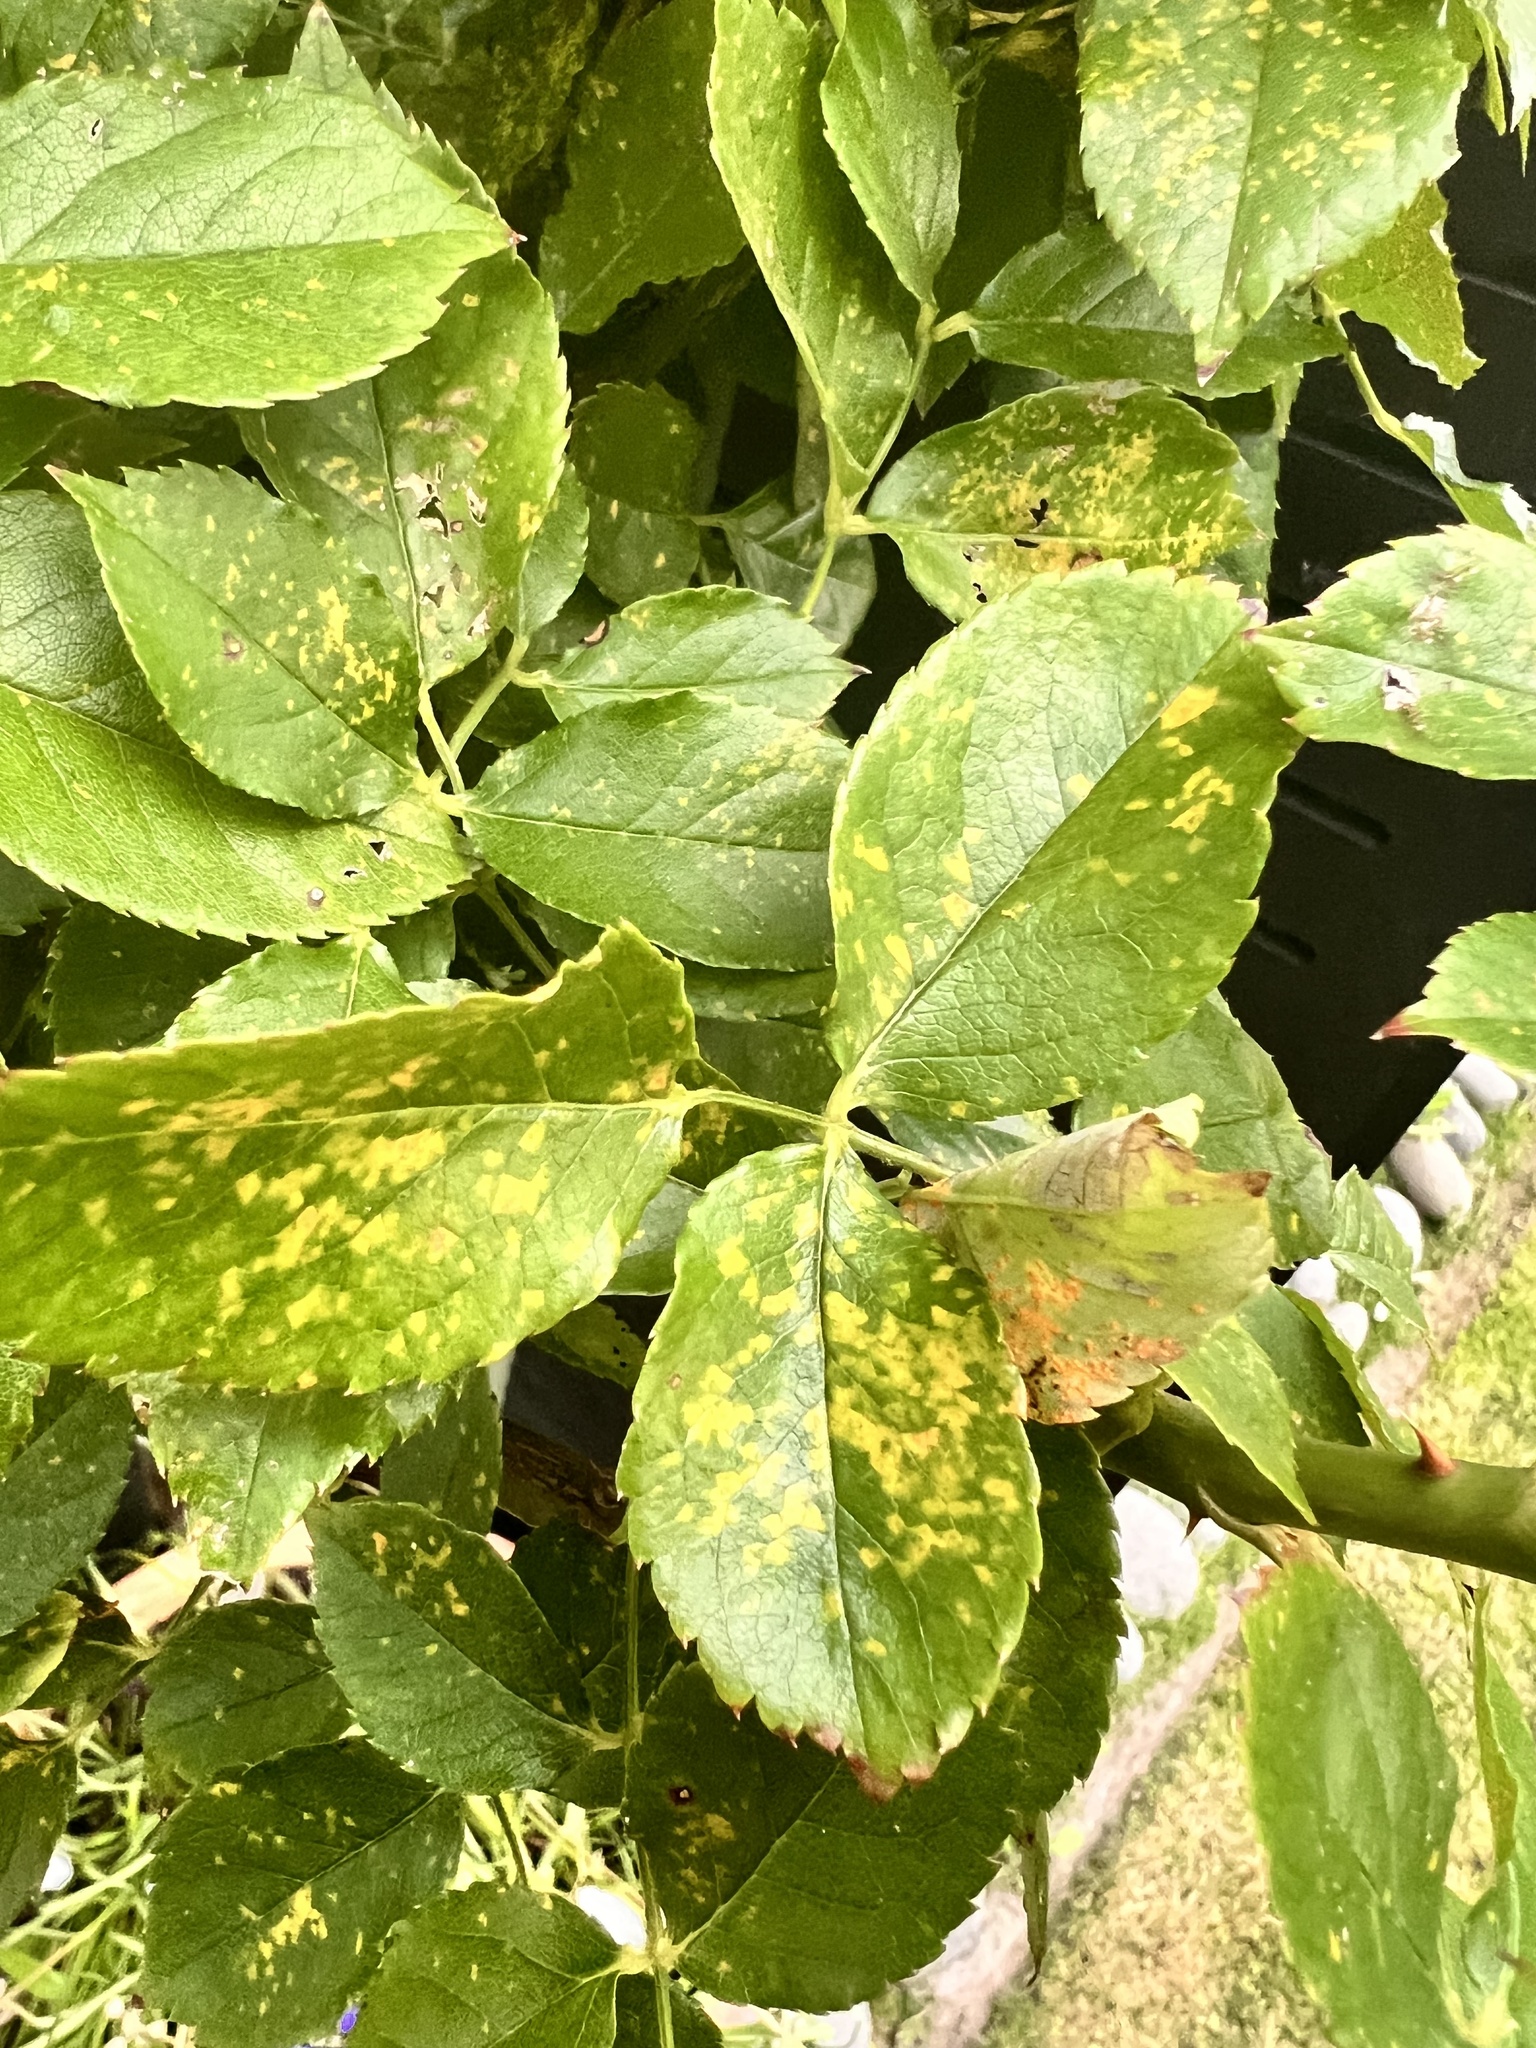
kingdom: Fungi
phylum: Basidiomycota
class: Pucciniomycetes
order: Pucciniales
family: Phragmidiaceae
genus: Phragmidium
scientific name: Phragmidium mucronatum
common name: Rose rust
